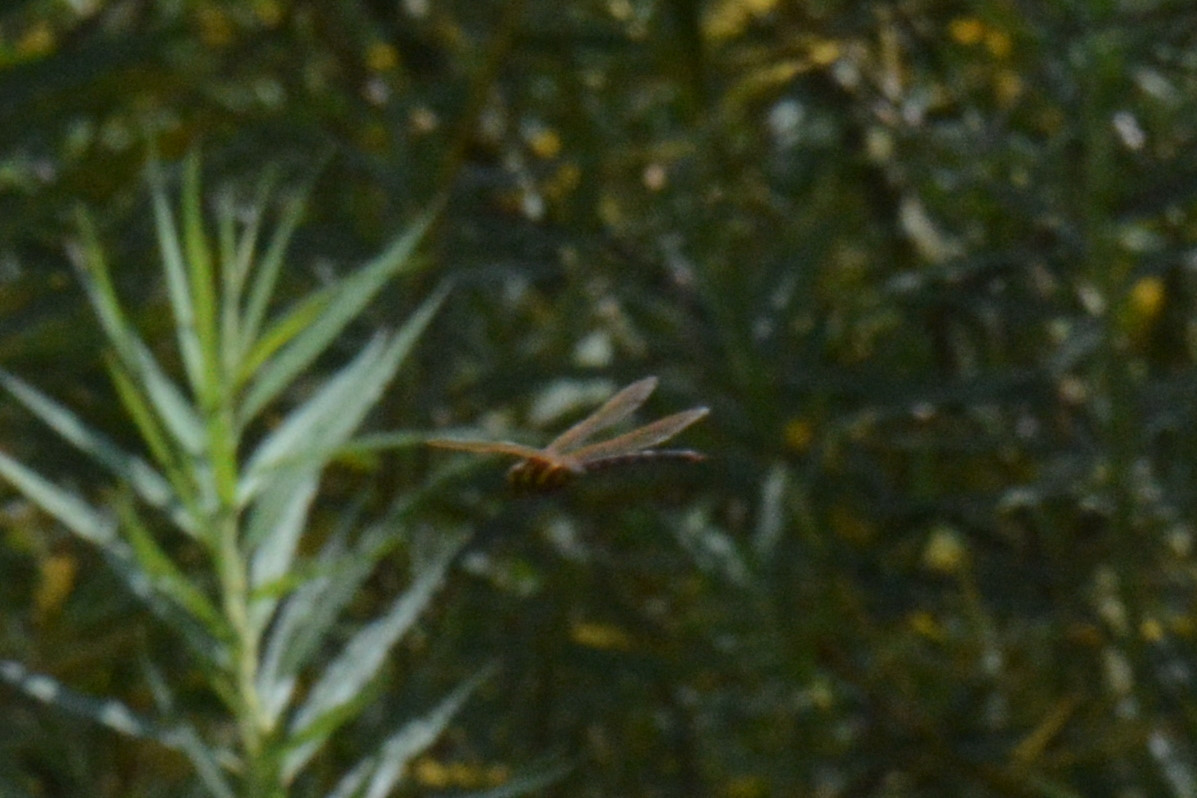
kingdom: Animalia
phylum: Arthropoda
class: Insecta
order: Odonata
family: Aeshnidae
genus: Aeshna
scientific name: Aeshna grandis
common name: Brown hawker
